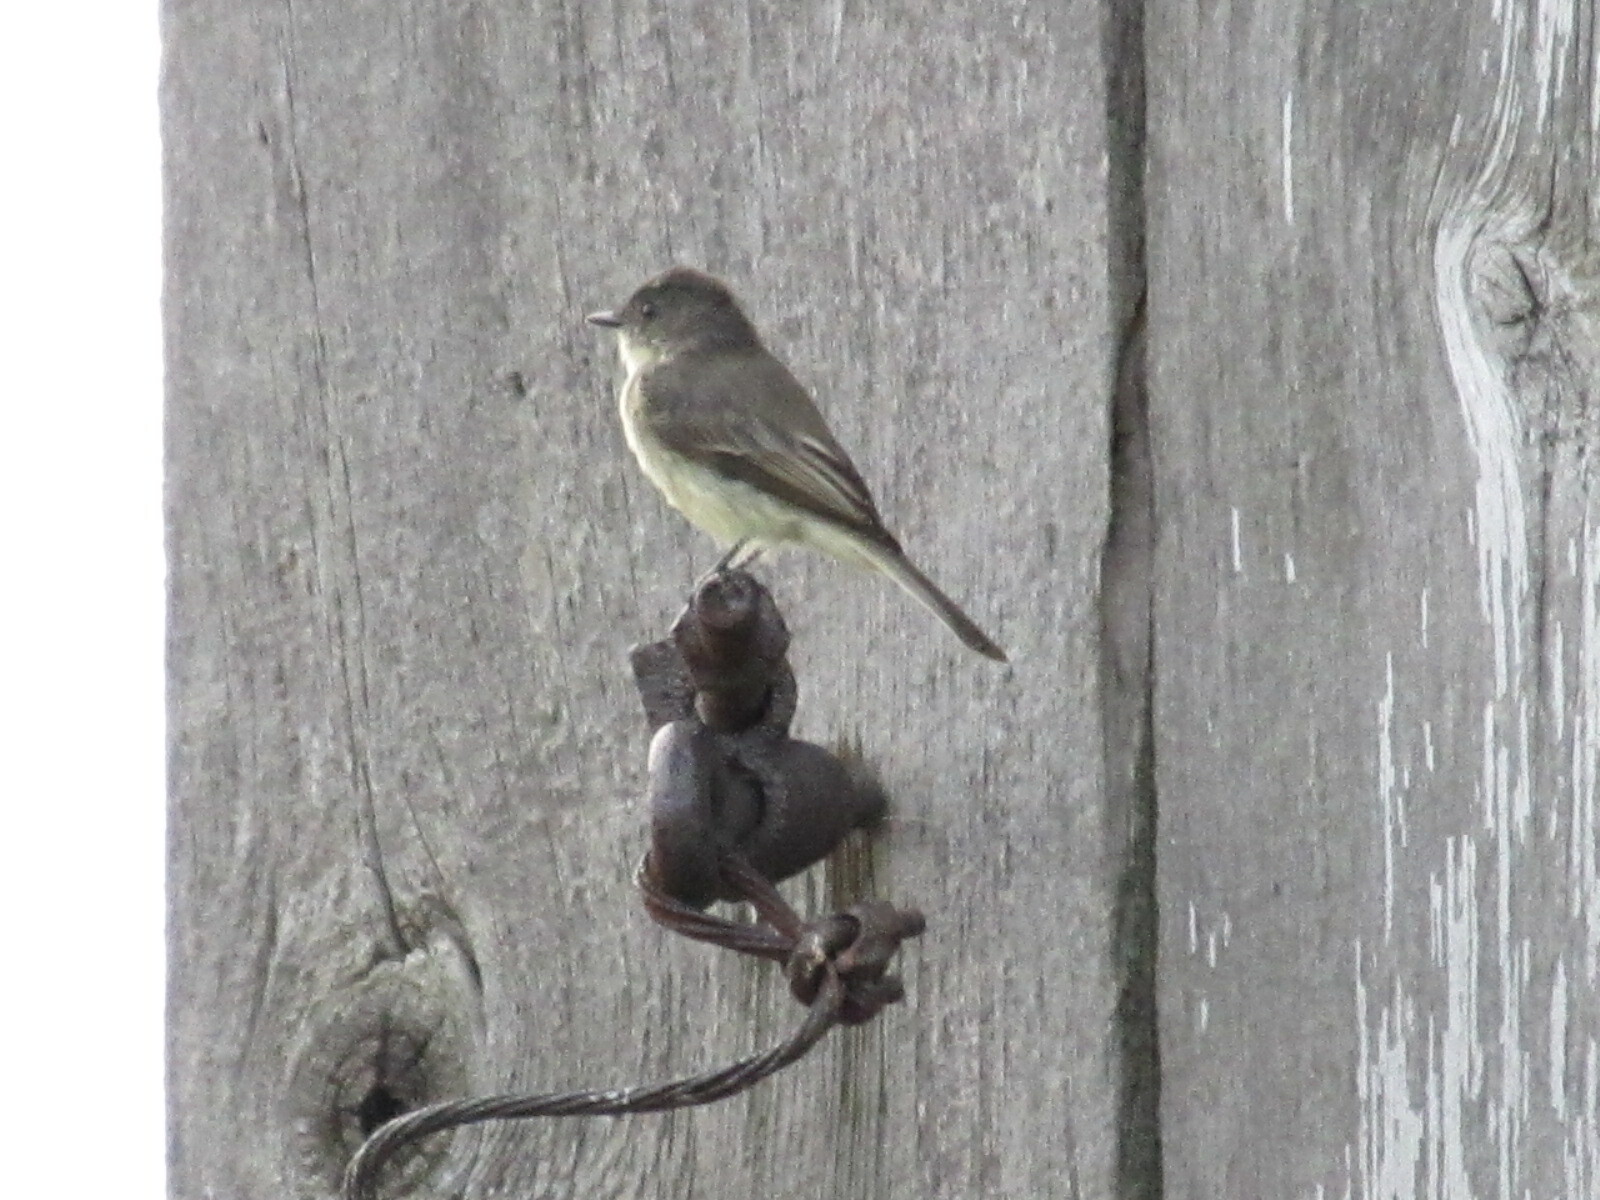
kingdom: Animalia
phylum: Chordata
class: Aves
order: Passeriformes
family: Tyrannidae
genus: Sayornis
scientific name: Sayornis phoebe
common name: Eastern phoebe
